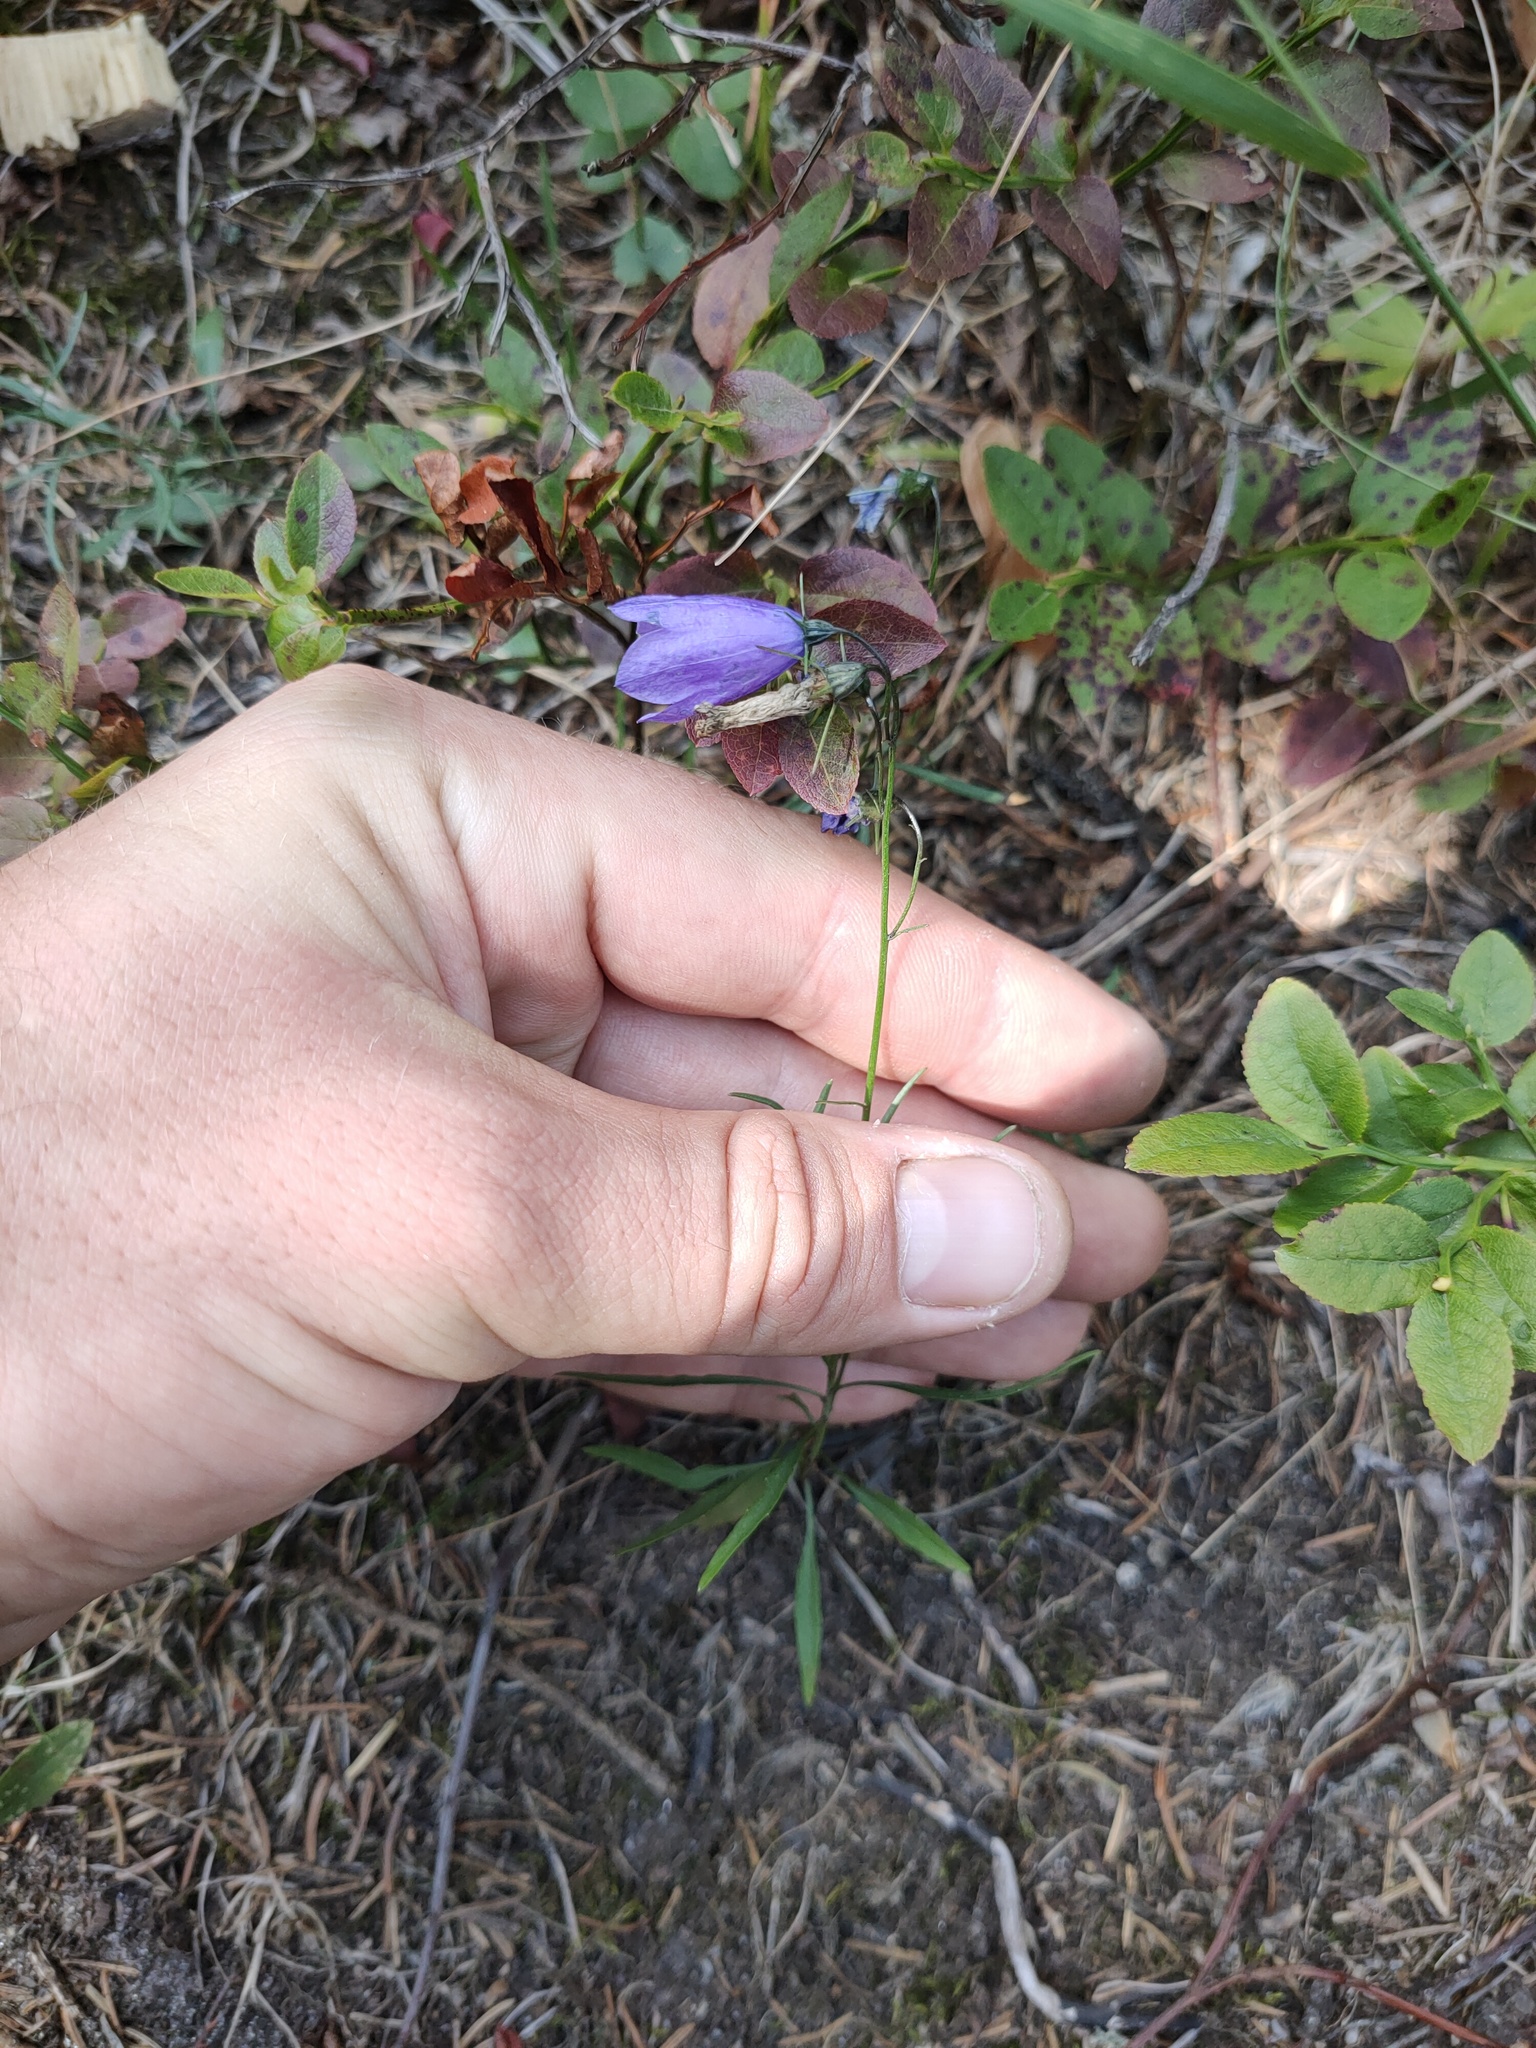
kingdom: Plantae
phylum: Tracheophyta
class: Magnoliopsida
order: Asterales
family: Campanulaceae
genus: Campanula
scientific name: Campanula rotundifolia
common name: Harebell
